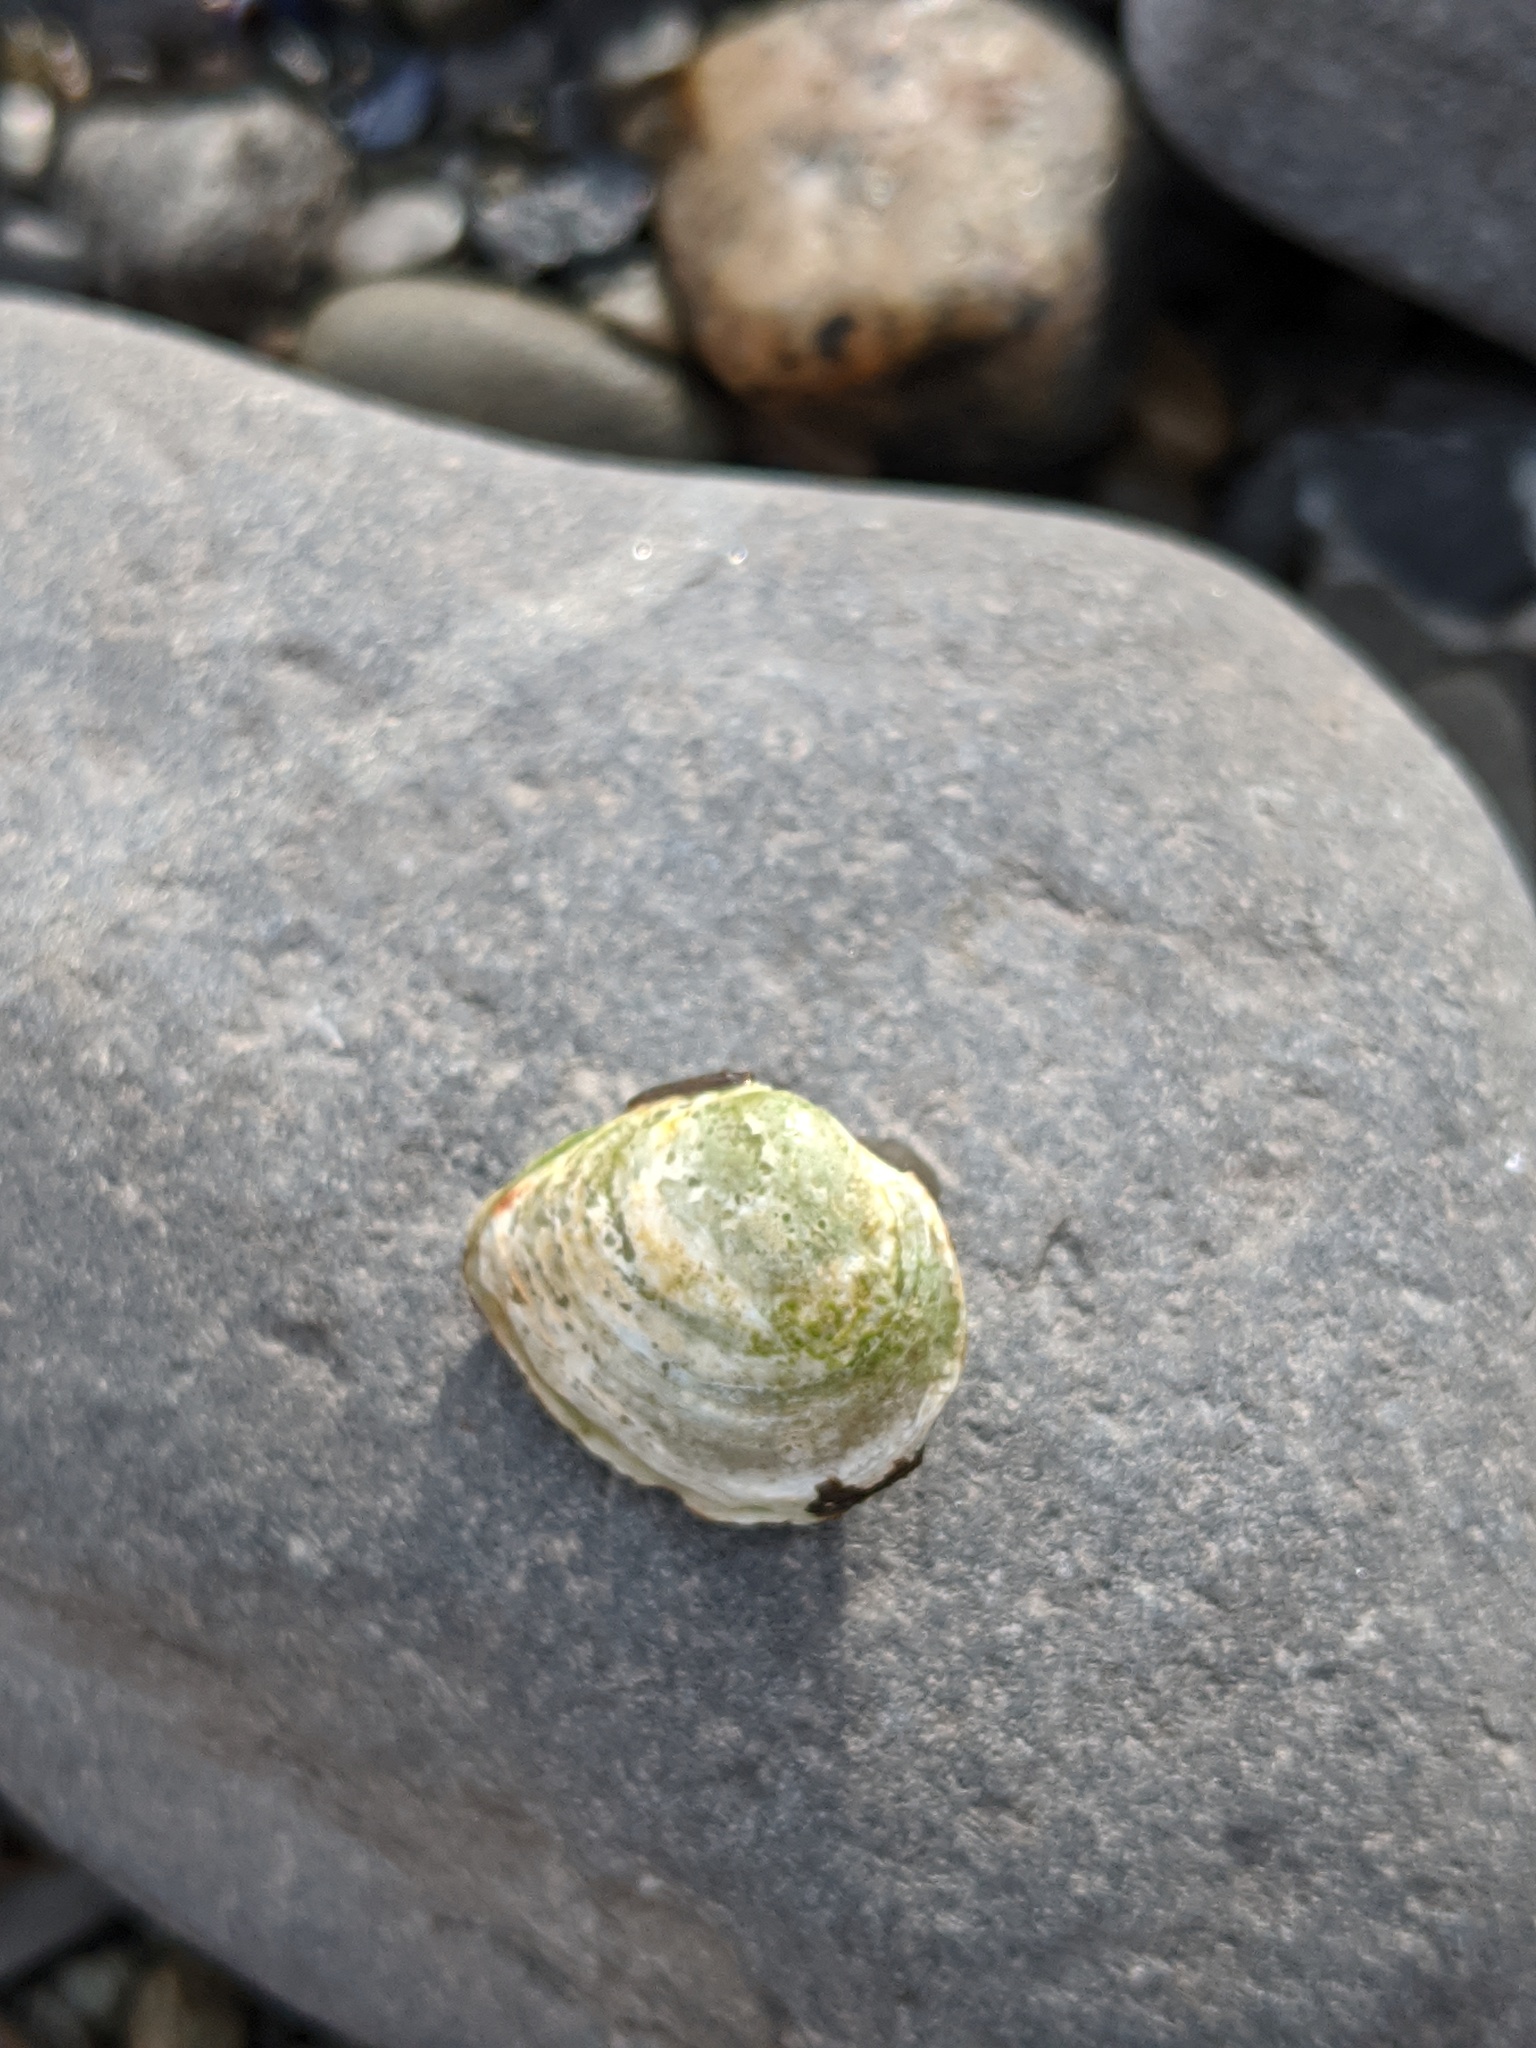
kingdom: Animalia
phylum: Mollusca
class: Bivalvia
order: Cardiida
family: Tellinidae
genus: Macoma
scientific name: Macoma balthica
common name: Baltic tellin
